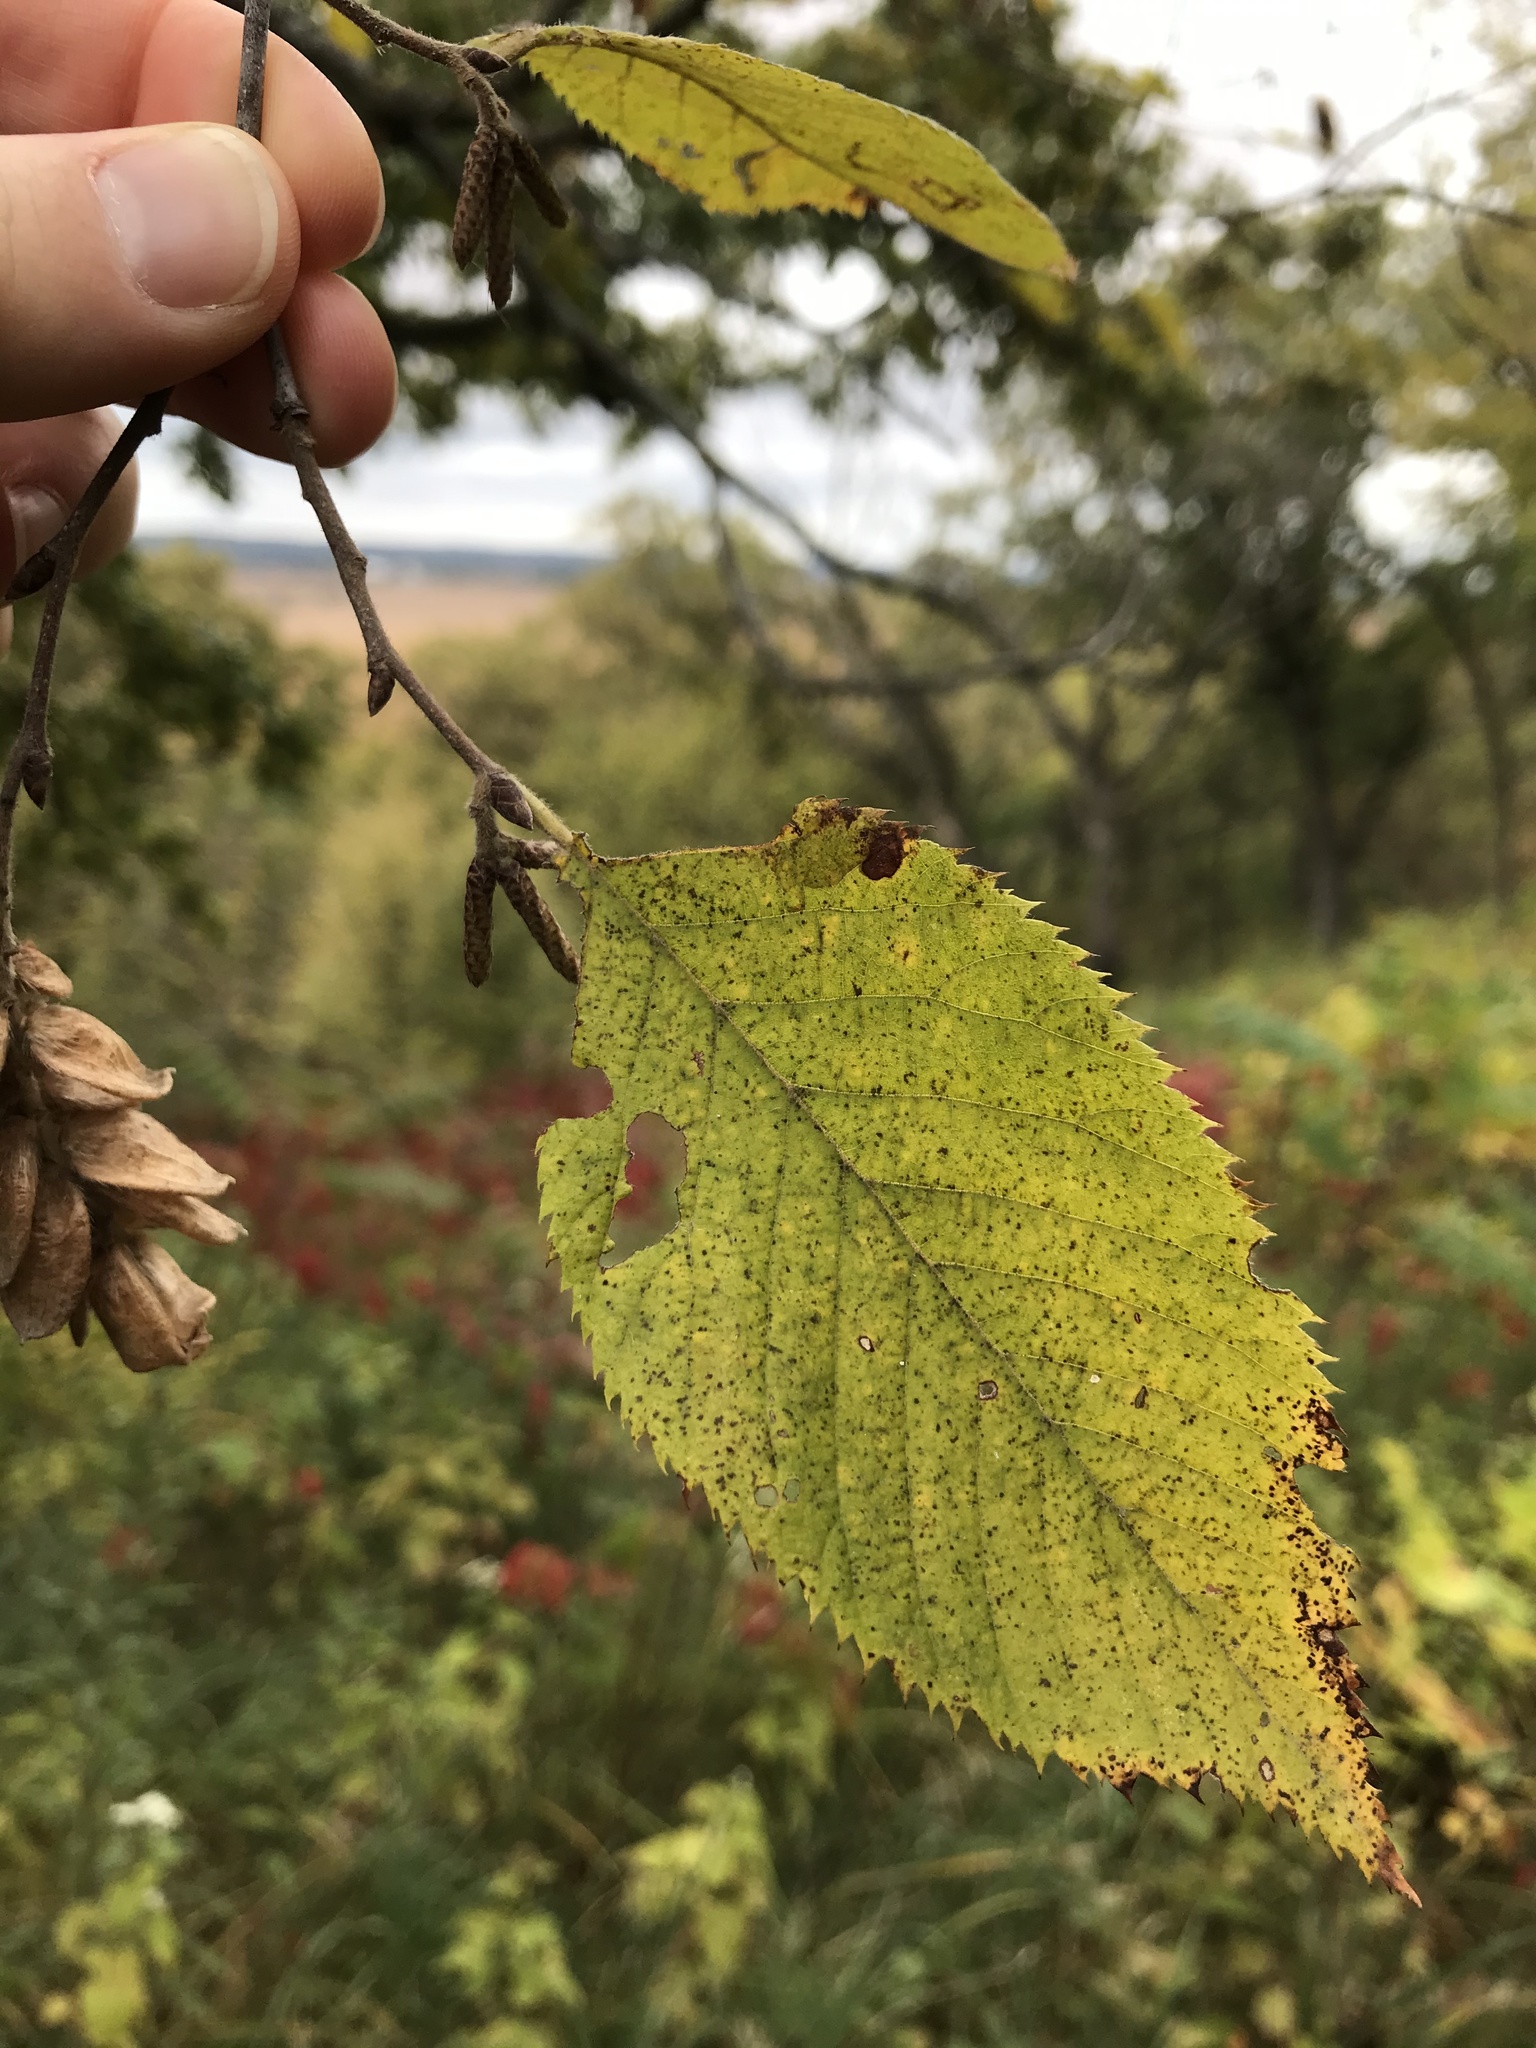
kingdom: Plantae
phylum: Tracheophyta
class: Magnoliopsida
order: Fagales
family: Betulaceae
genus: Ostrya
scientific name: Ostrya virginiana
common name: Ironwood
